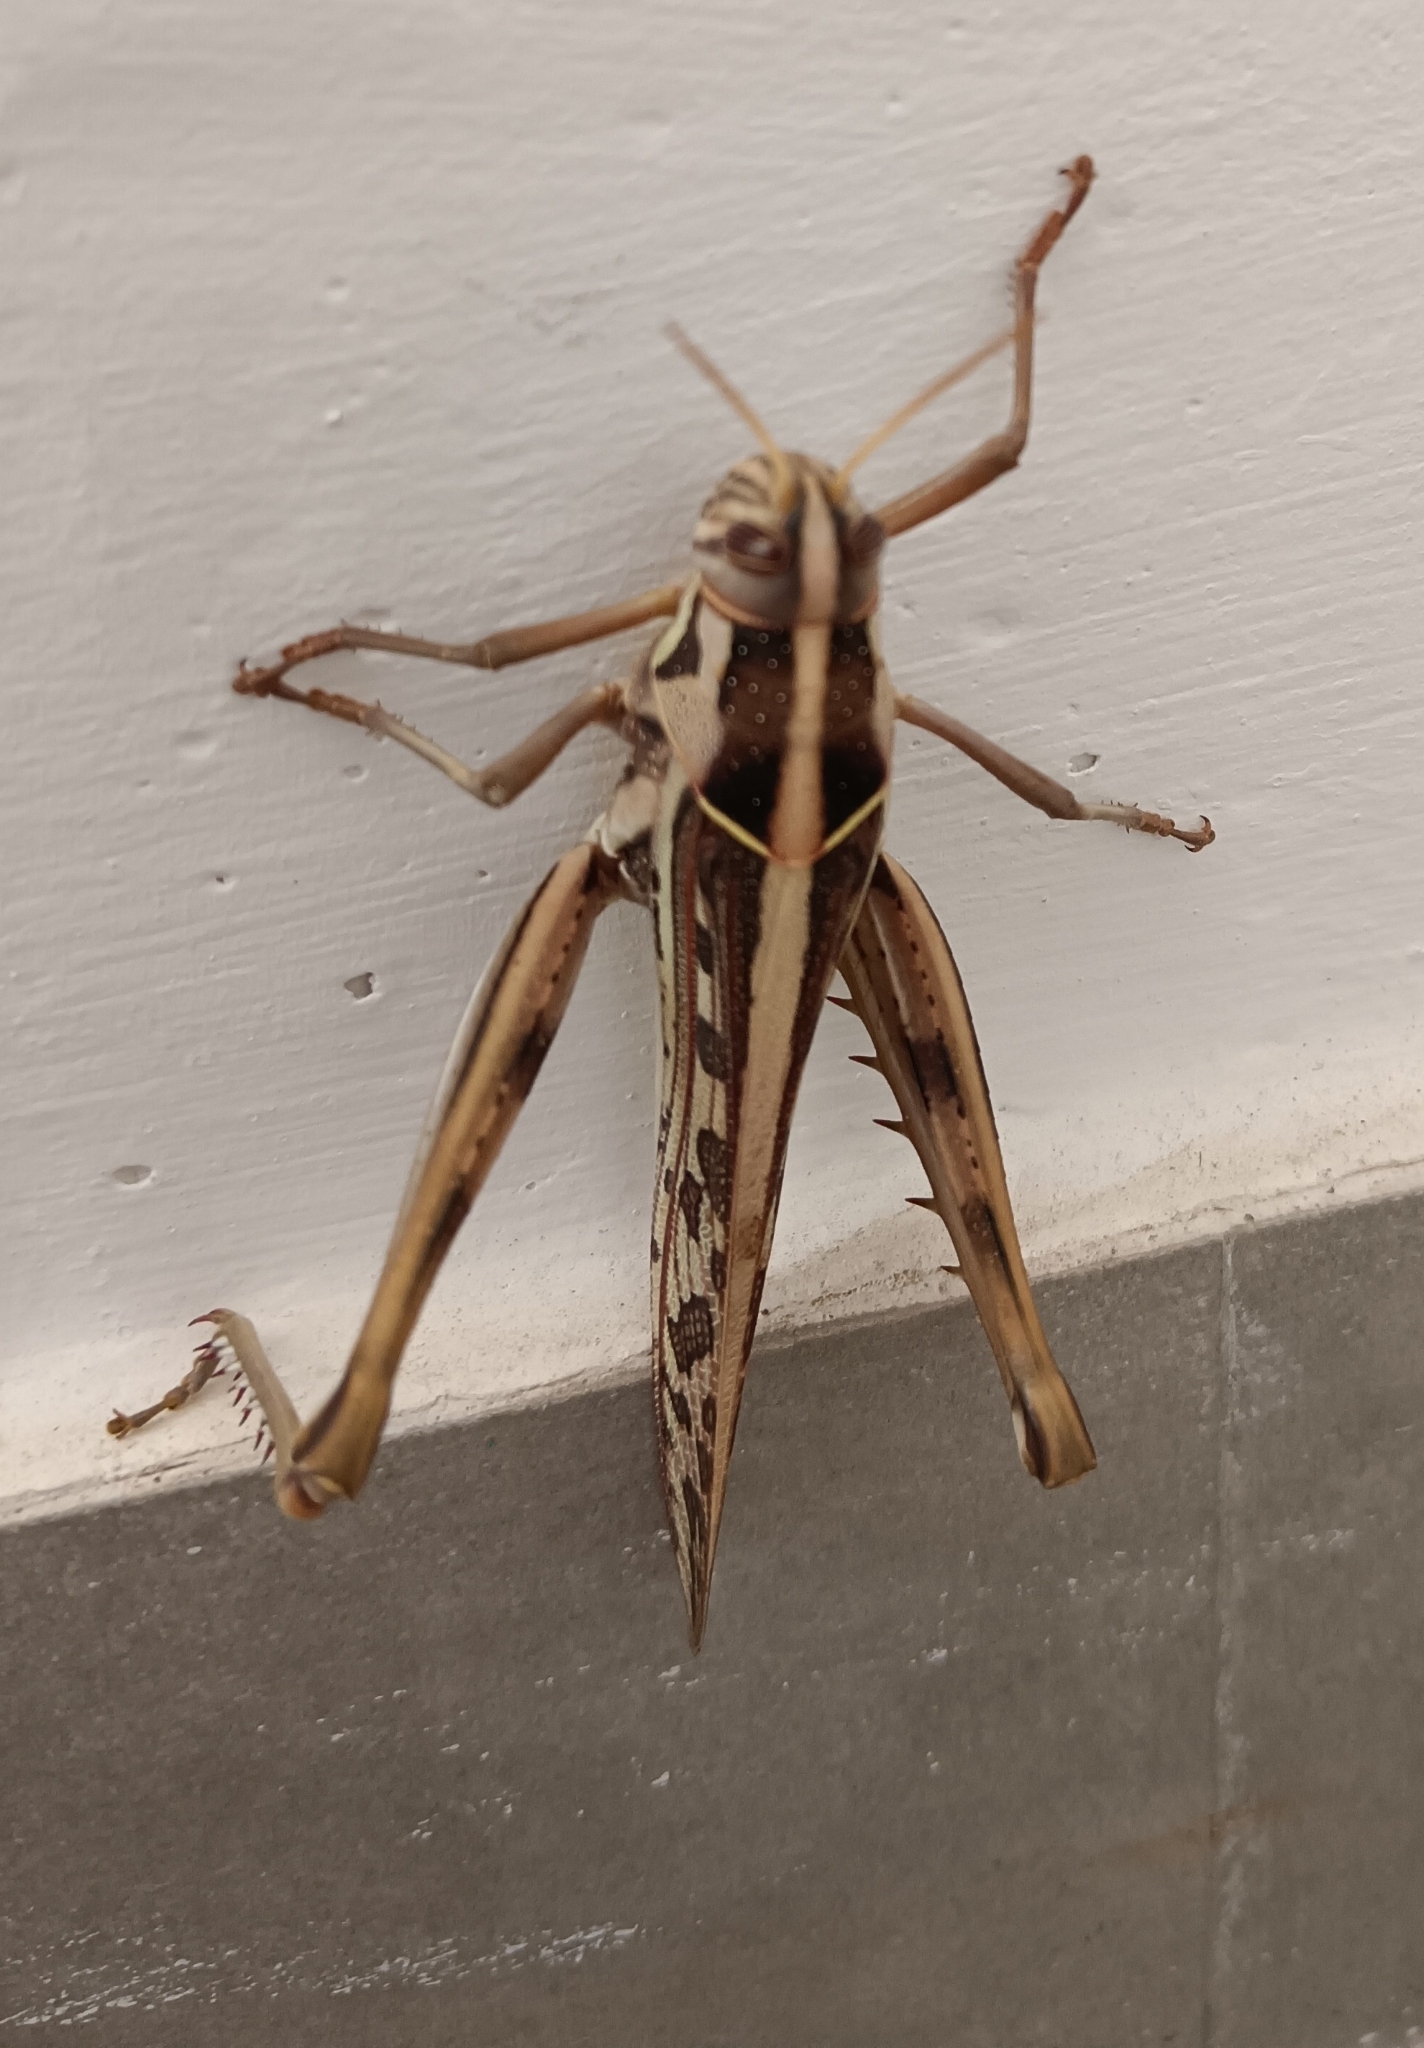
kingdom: Animalia
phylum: Arthropoda
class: Insecta
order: Orthoptera
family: Acrididae
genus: Cyrtacanthacris
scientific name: Cyrtacanthacris tatarica
